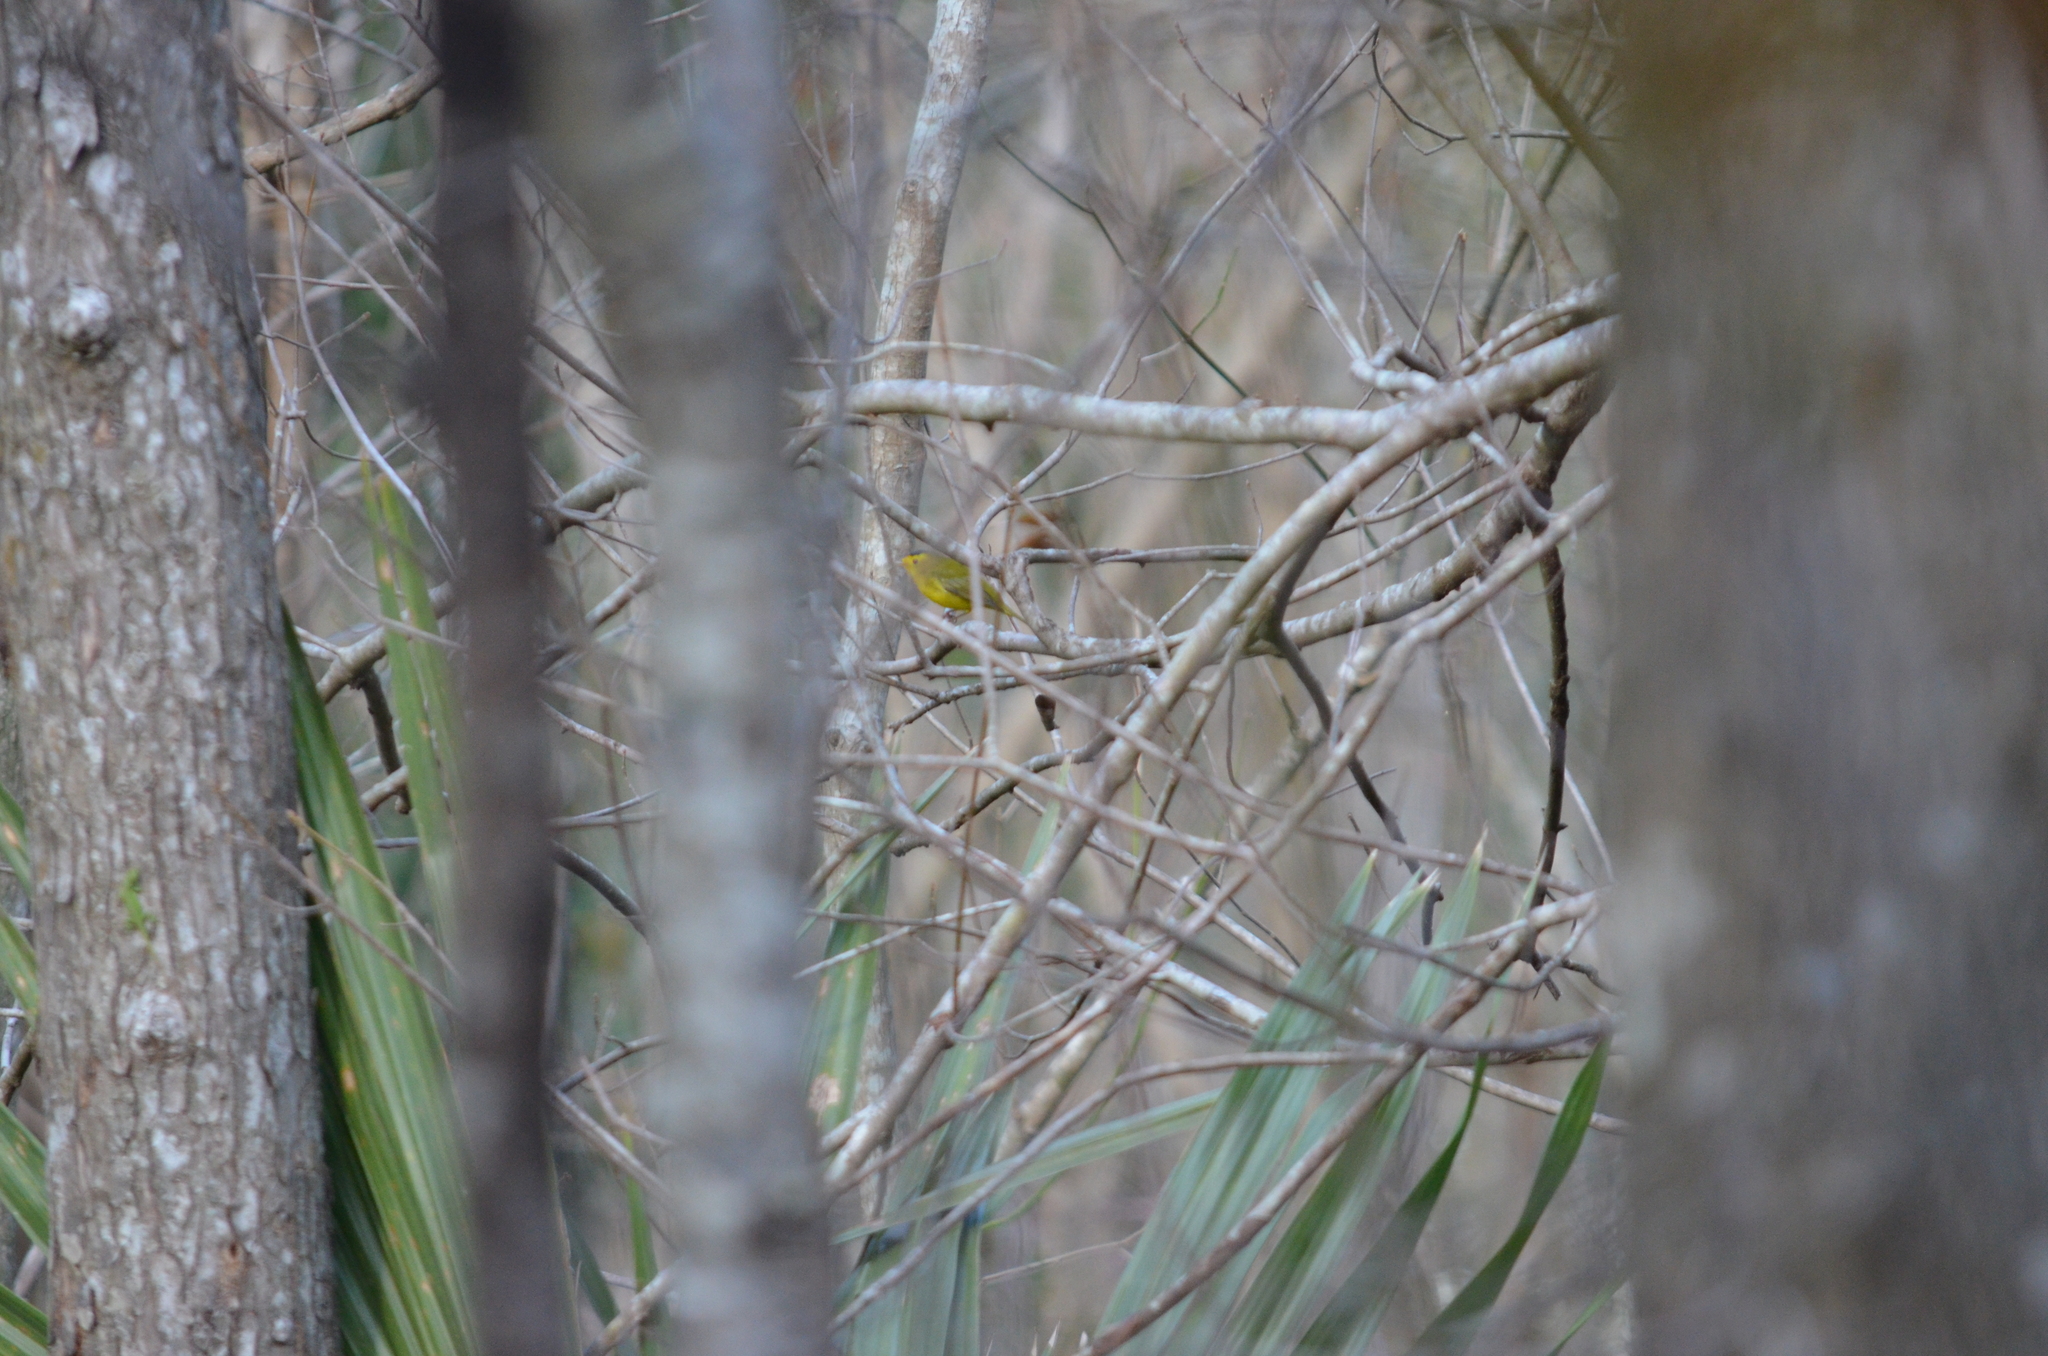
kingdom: Animalia
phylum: Chordata
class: Aves
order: Passeriformes
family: Parulidae
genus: Cardellina
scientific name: Cardellina pusilla
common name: Wilson's warbler
